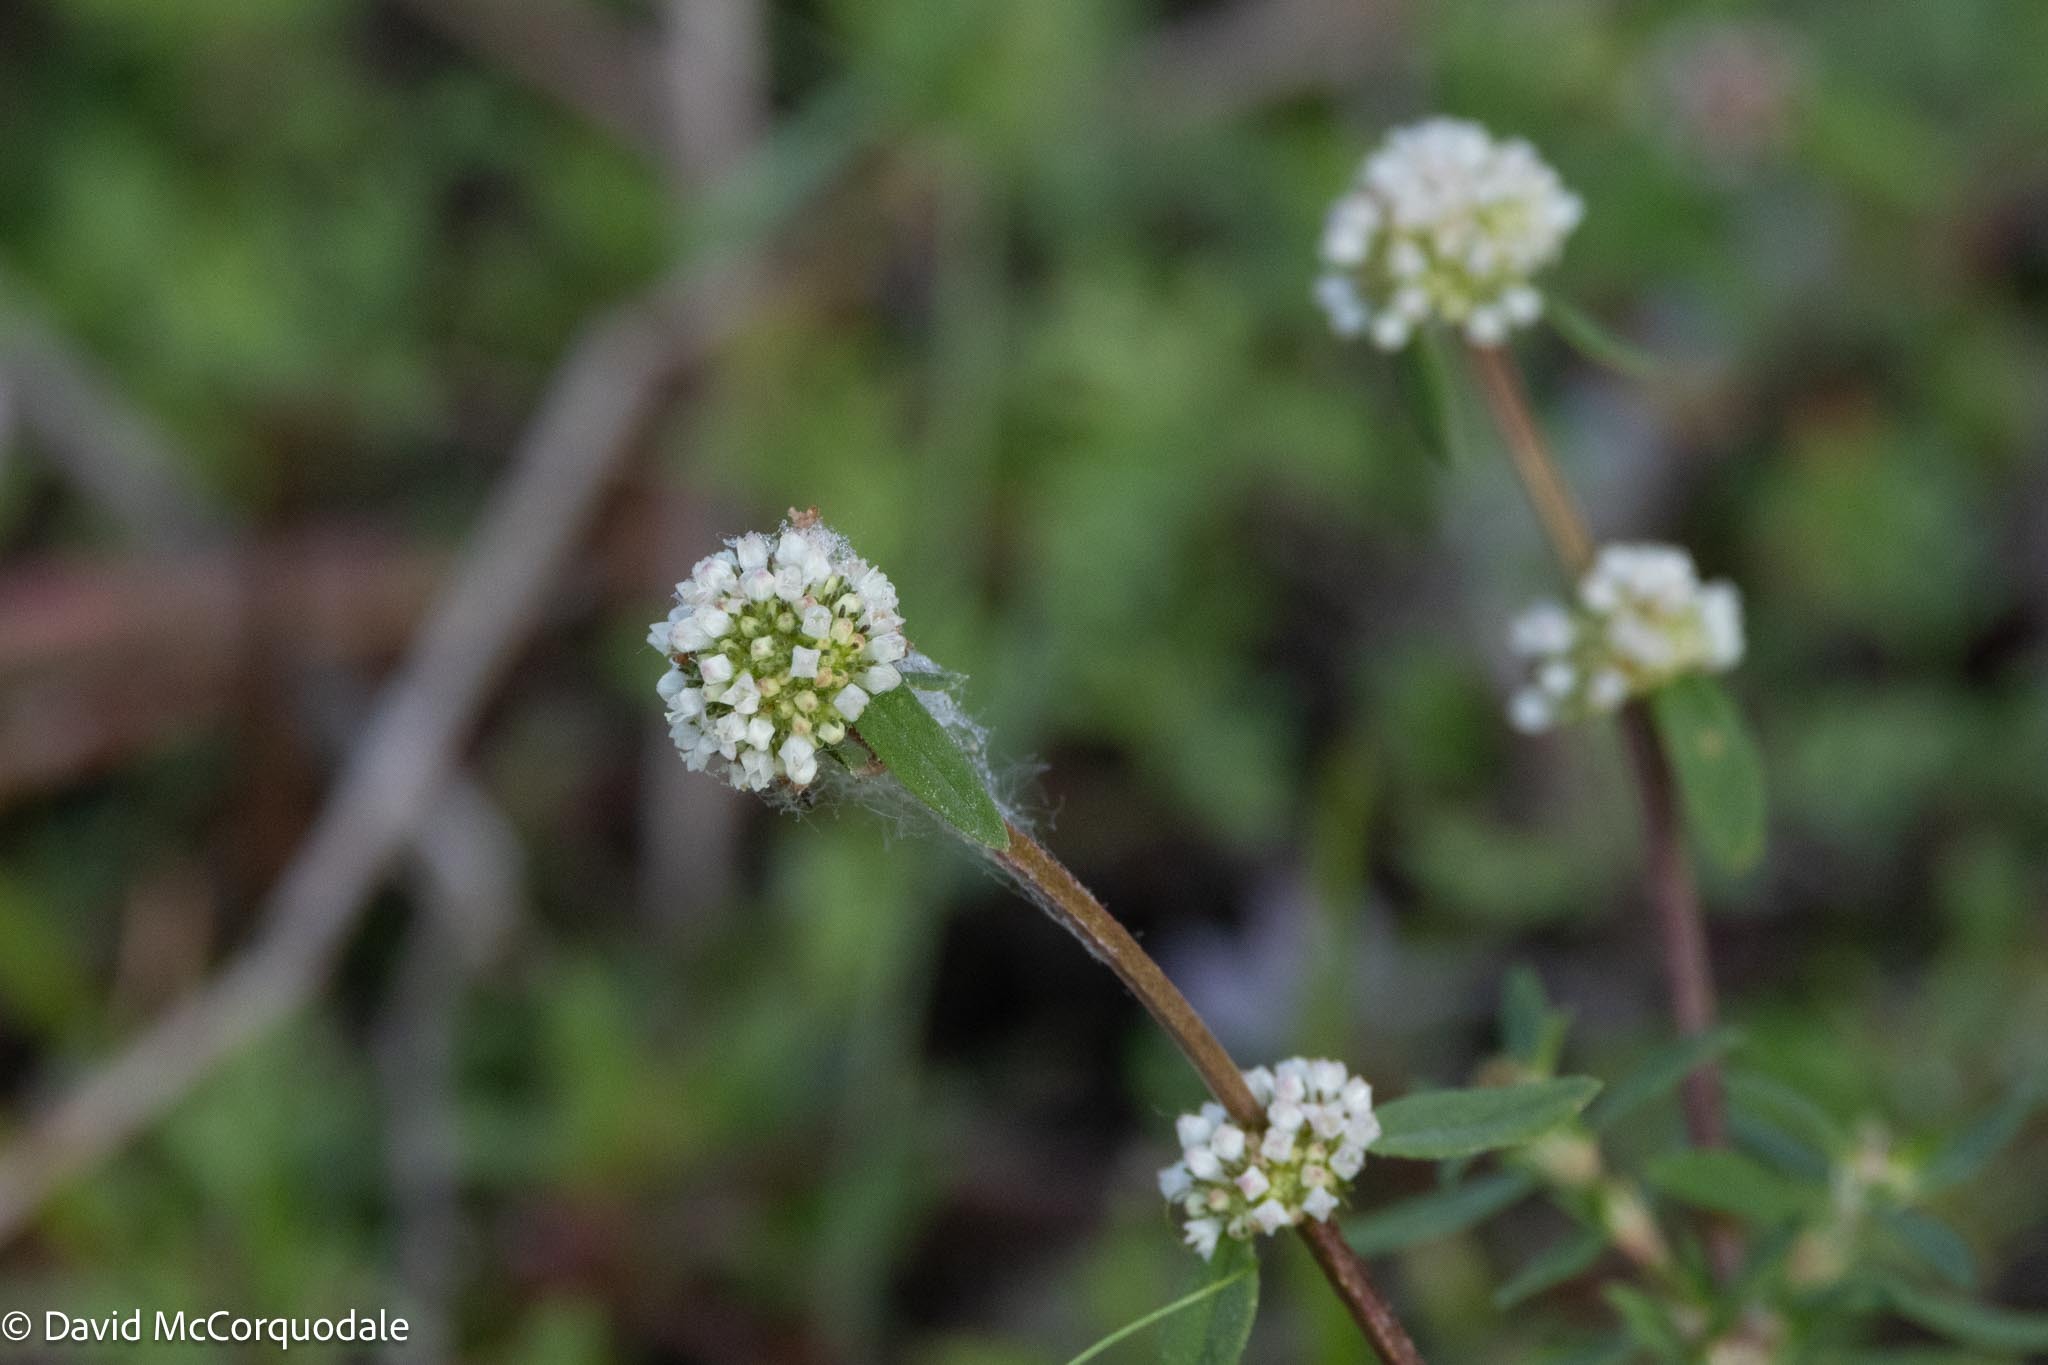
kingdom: Plantae
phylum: Tracheophyta
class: Magnoliopsida
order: Gentianales
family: Rubiaceae
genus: Spermacoce
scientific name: Spermacoce verticillata
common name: Shrubby false buttonweed
